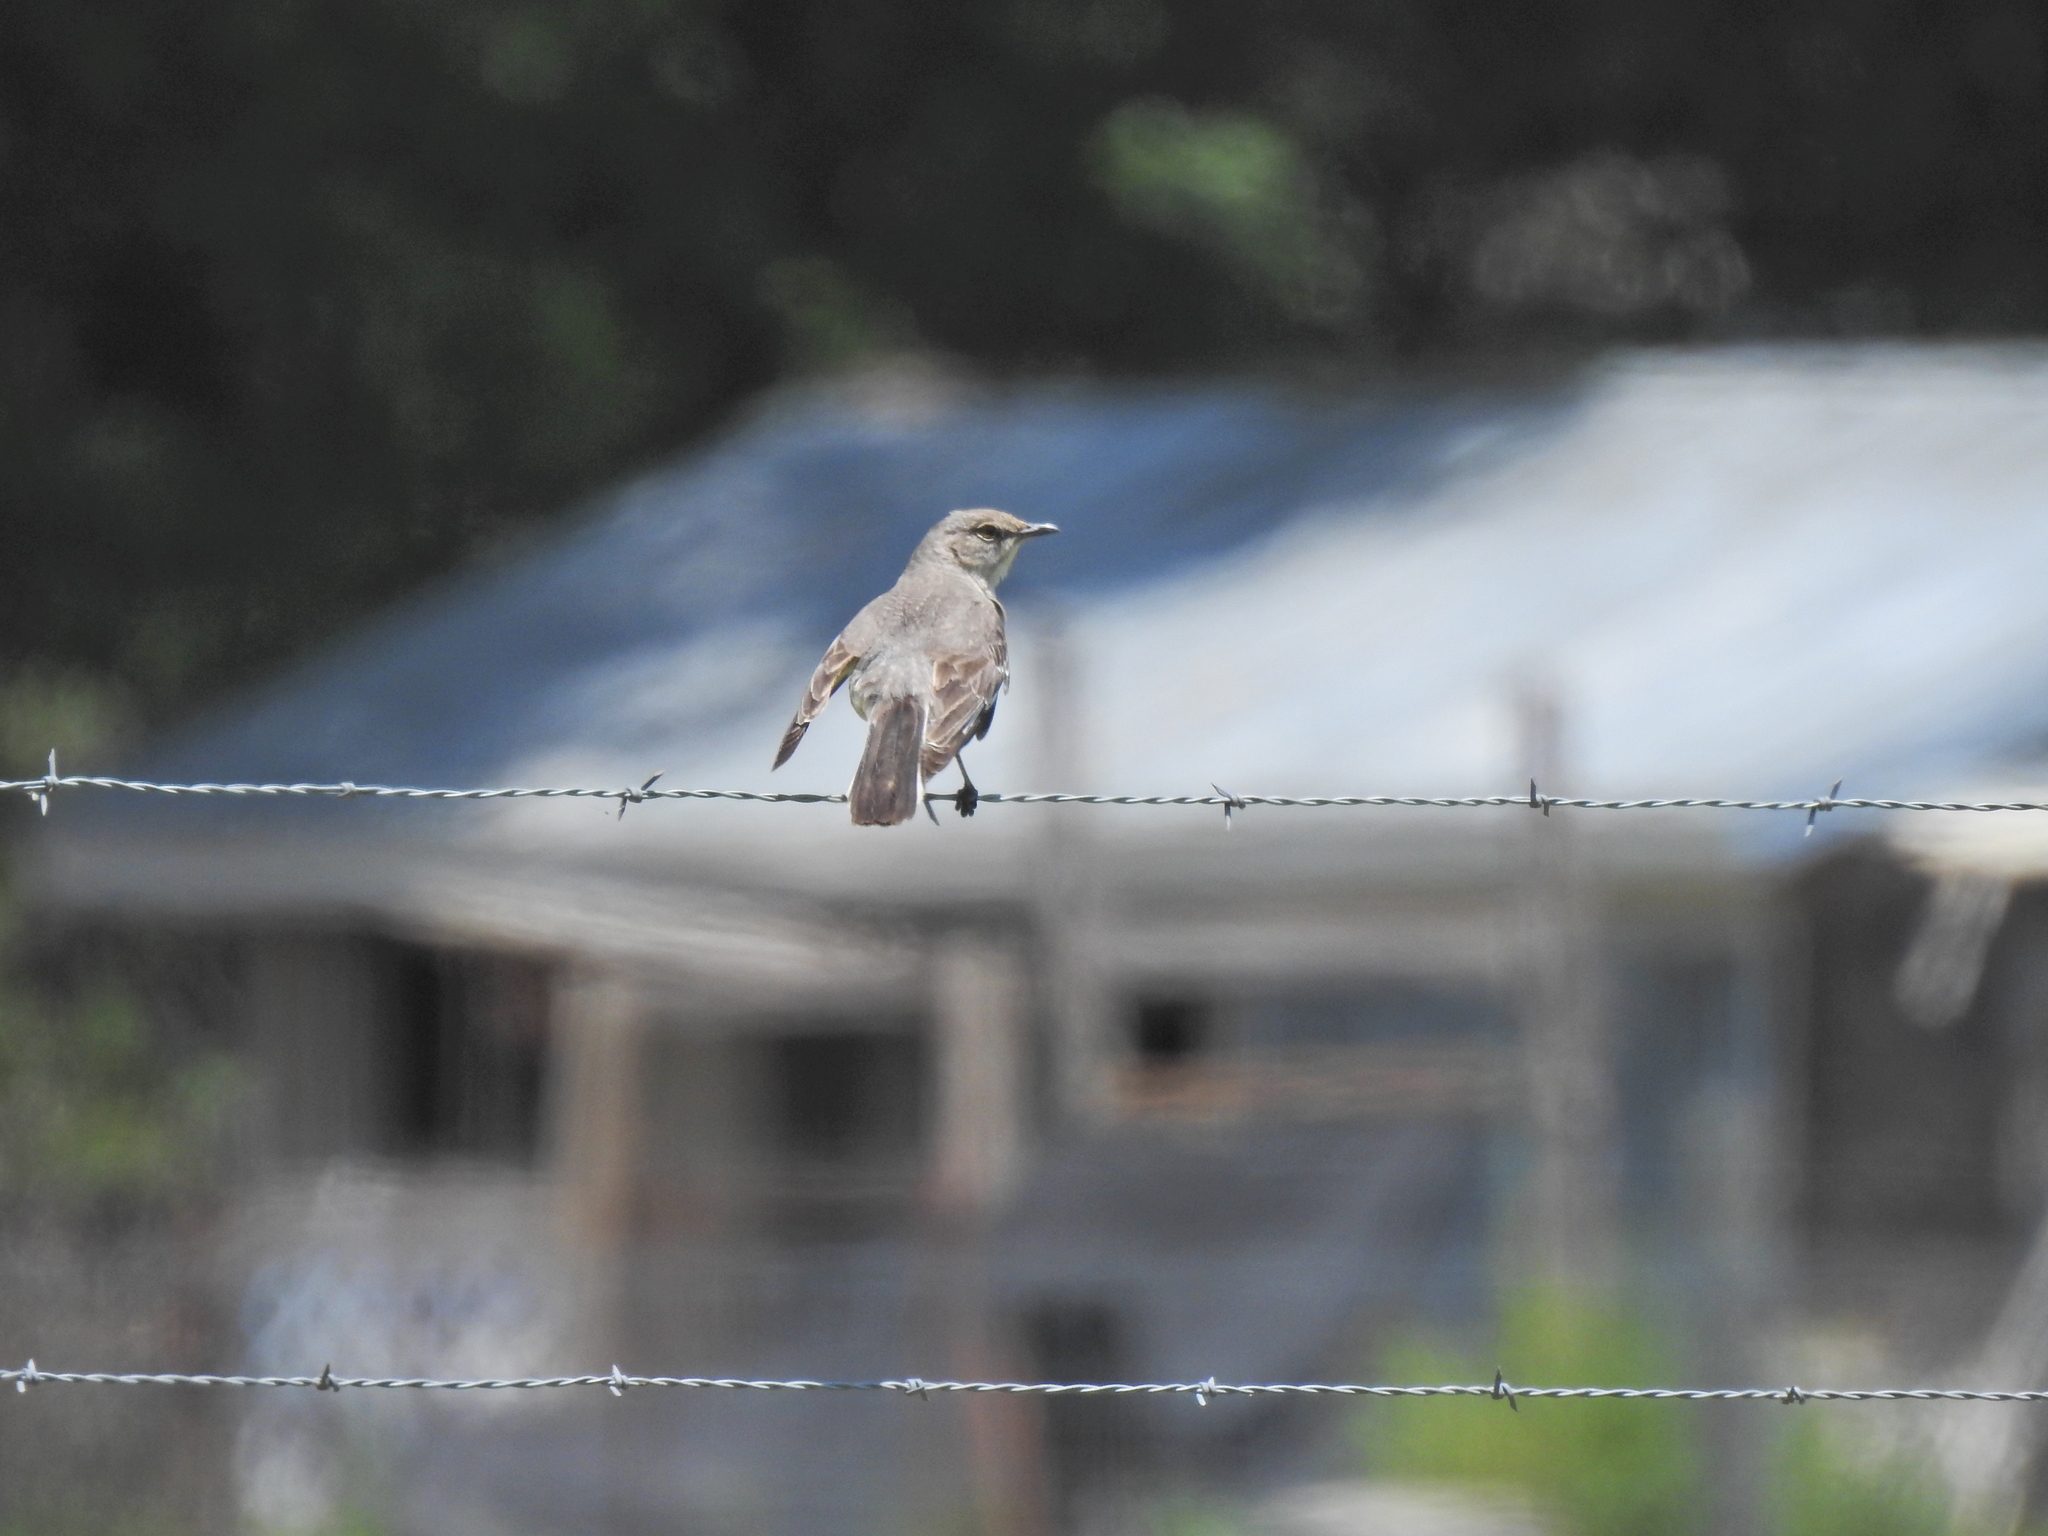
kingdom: Animalia
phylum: Chordata
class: Aves
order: Passeriformes
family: Mimidae
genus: Mimus
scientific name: Mimus polyglottos
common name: Northern mockingbird
